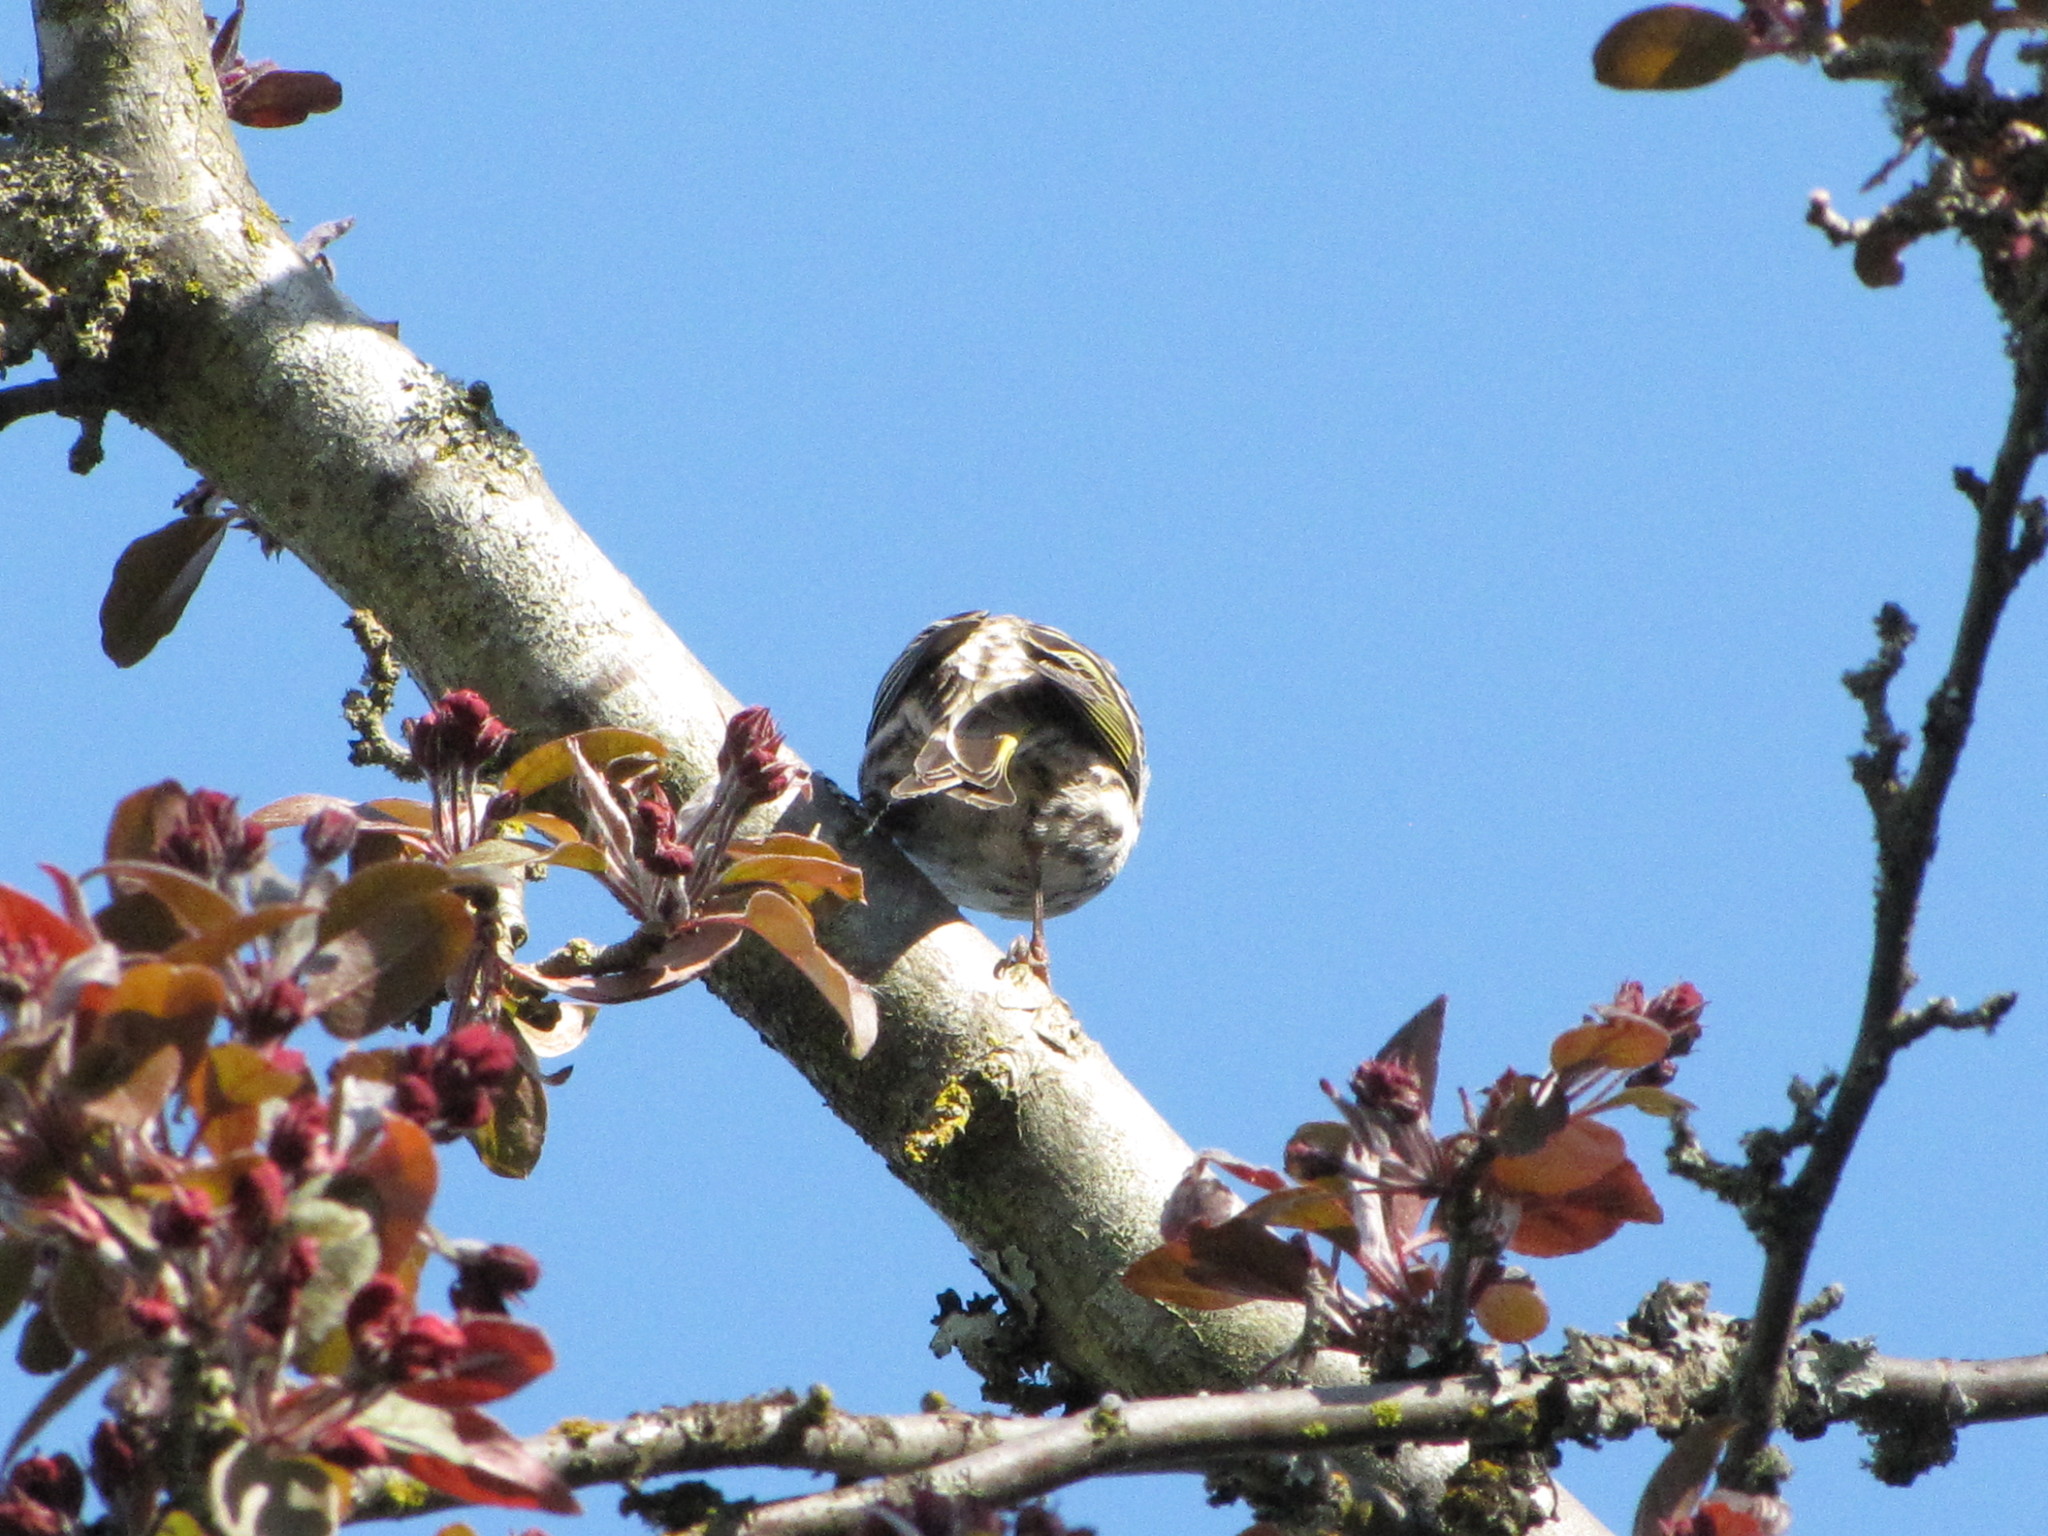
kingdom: Animalia
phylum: Chordata
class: Aves
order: Passeriformes
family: Fringillidae
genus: Spinus
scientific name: Spinus pinus
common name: Pine siskin
